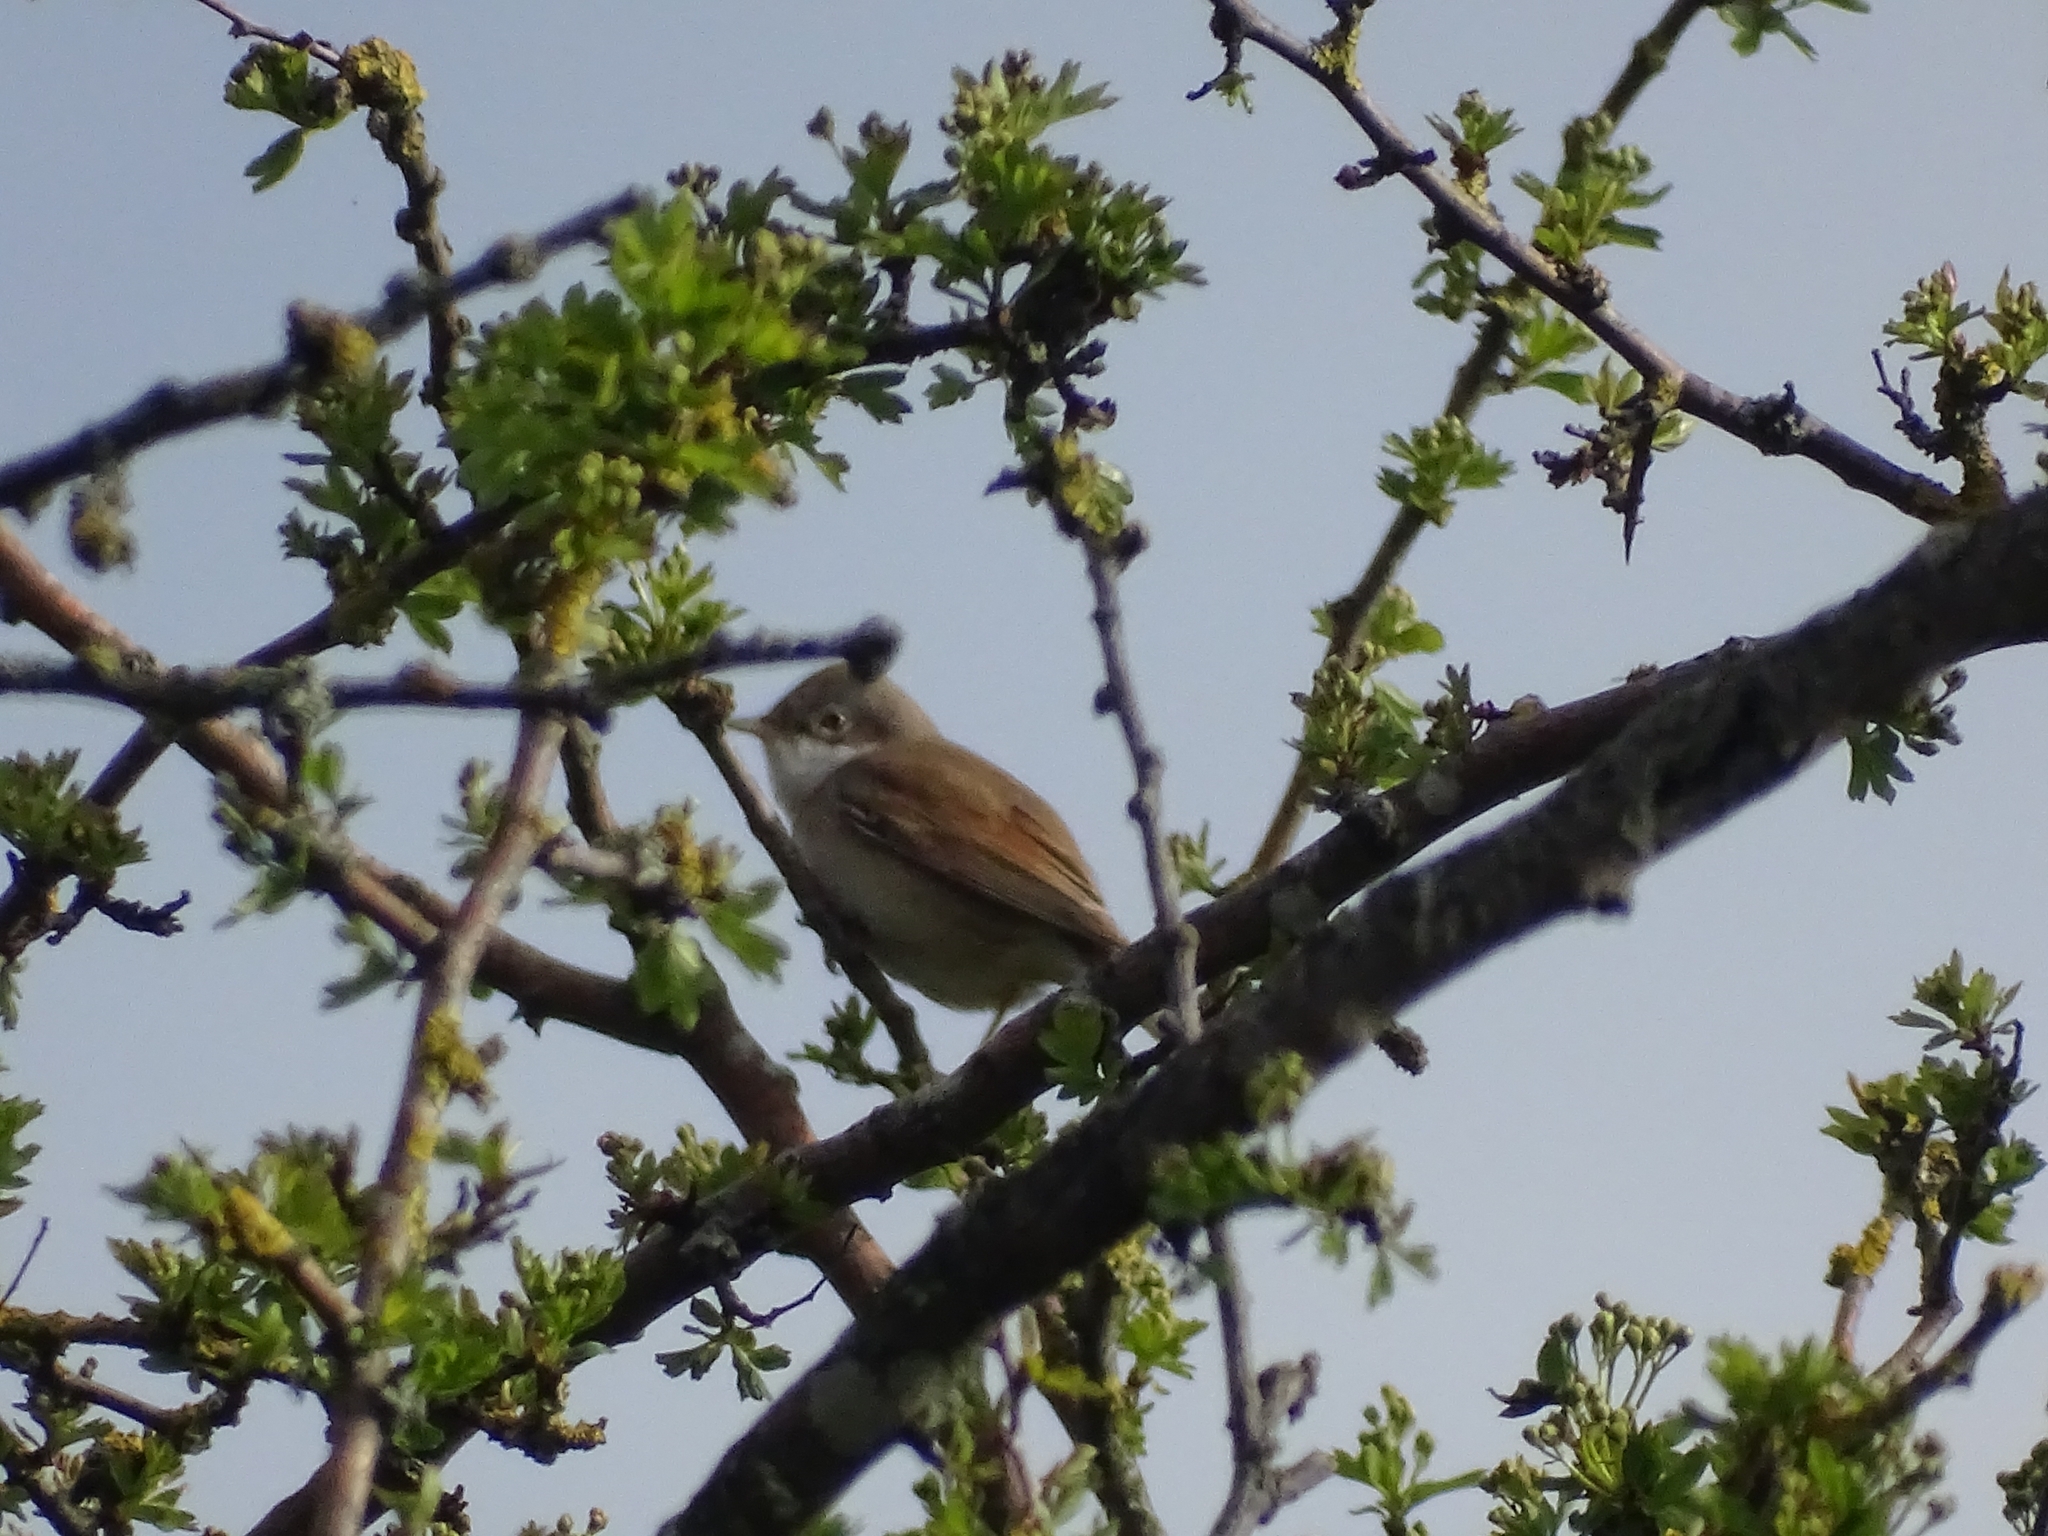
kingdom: Animalia
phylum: Chordata
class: Aves
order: Passeriformes
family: Sylviidae
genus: Sylvia
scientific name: Sylvia communis
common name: Common whitethroat
